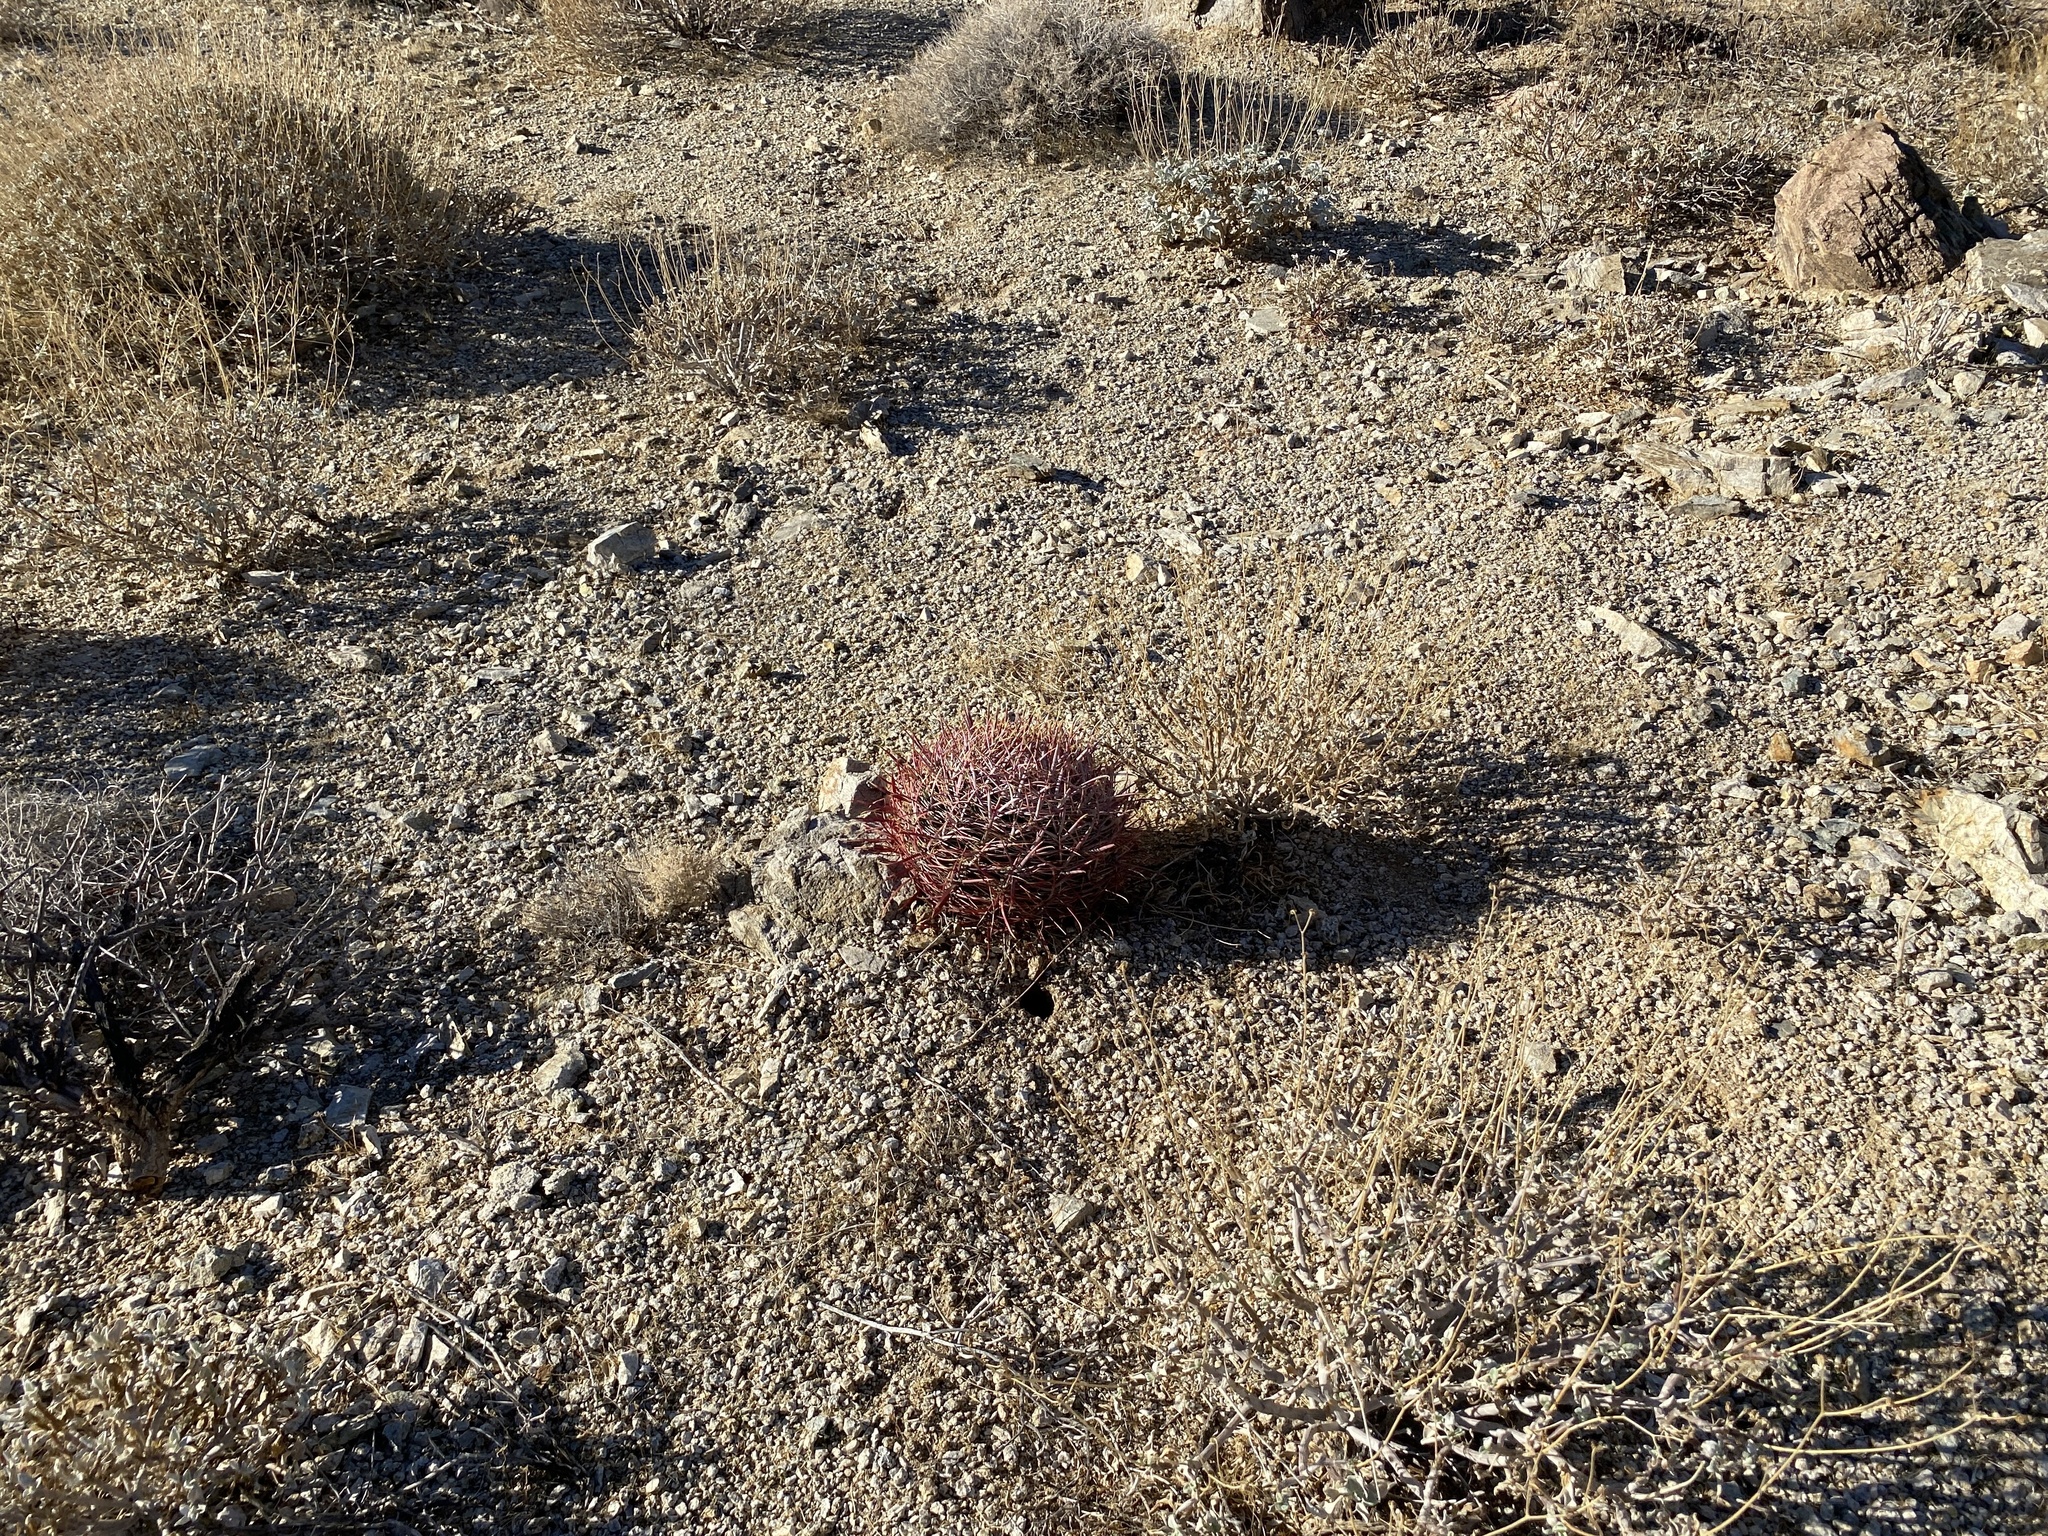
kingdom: Plantae
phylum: Tracheophyta
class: Magnoliopsida
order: Caryophyllales
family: Cactaceae
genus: Ferocactus
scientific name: Ferocactus cylindraceus
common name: California barrel cactus
